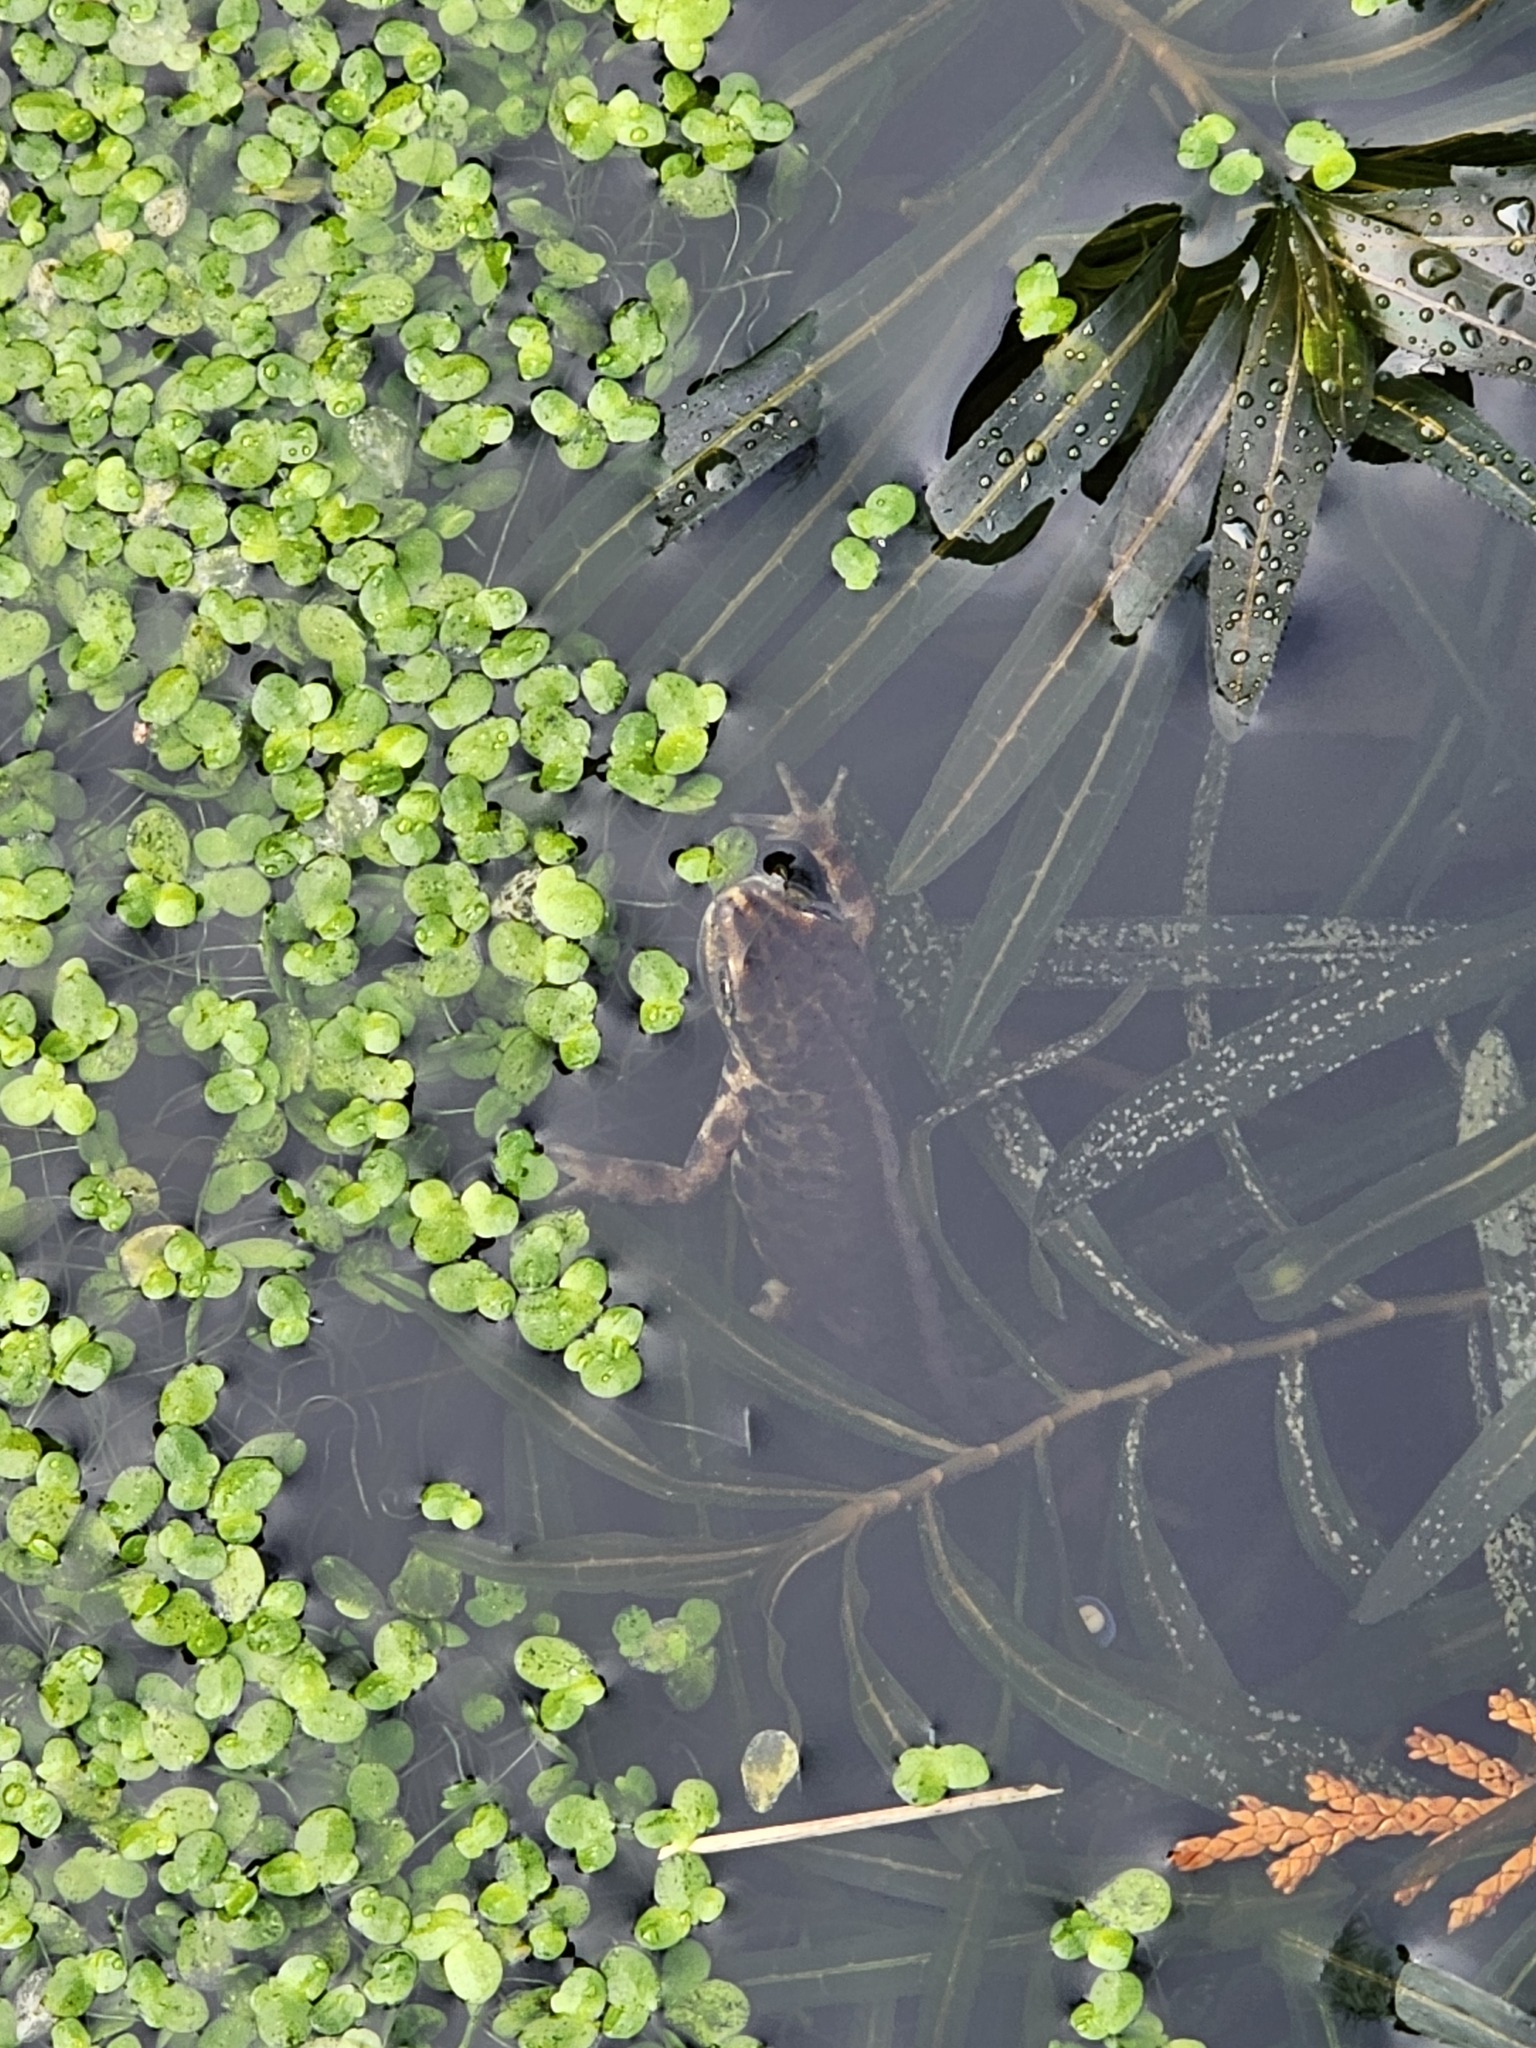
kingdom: Animalia
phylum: Chordata
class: Amphibia
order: Caudata
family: Salamandridae
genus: Lissotriton
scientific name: Lissotriton vulgaris
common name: Smooth newt
